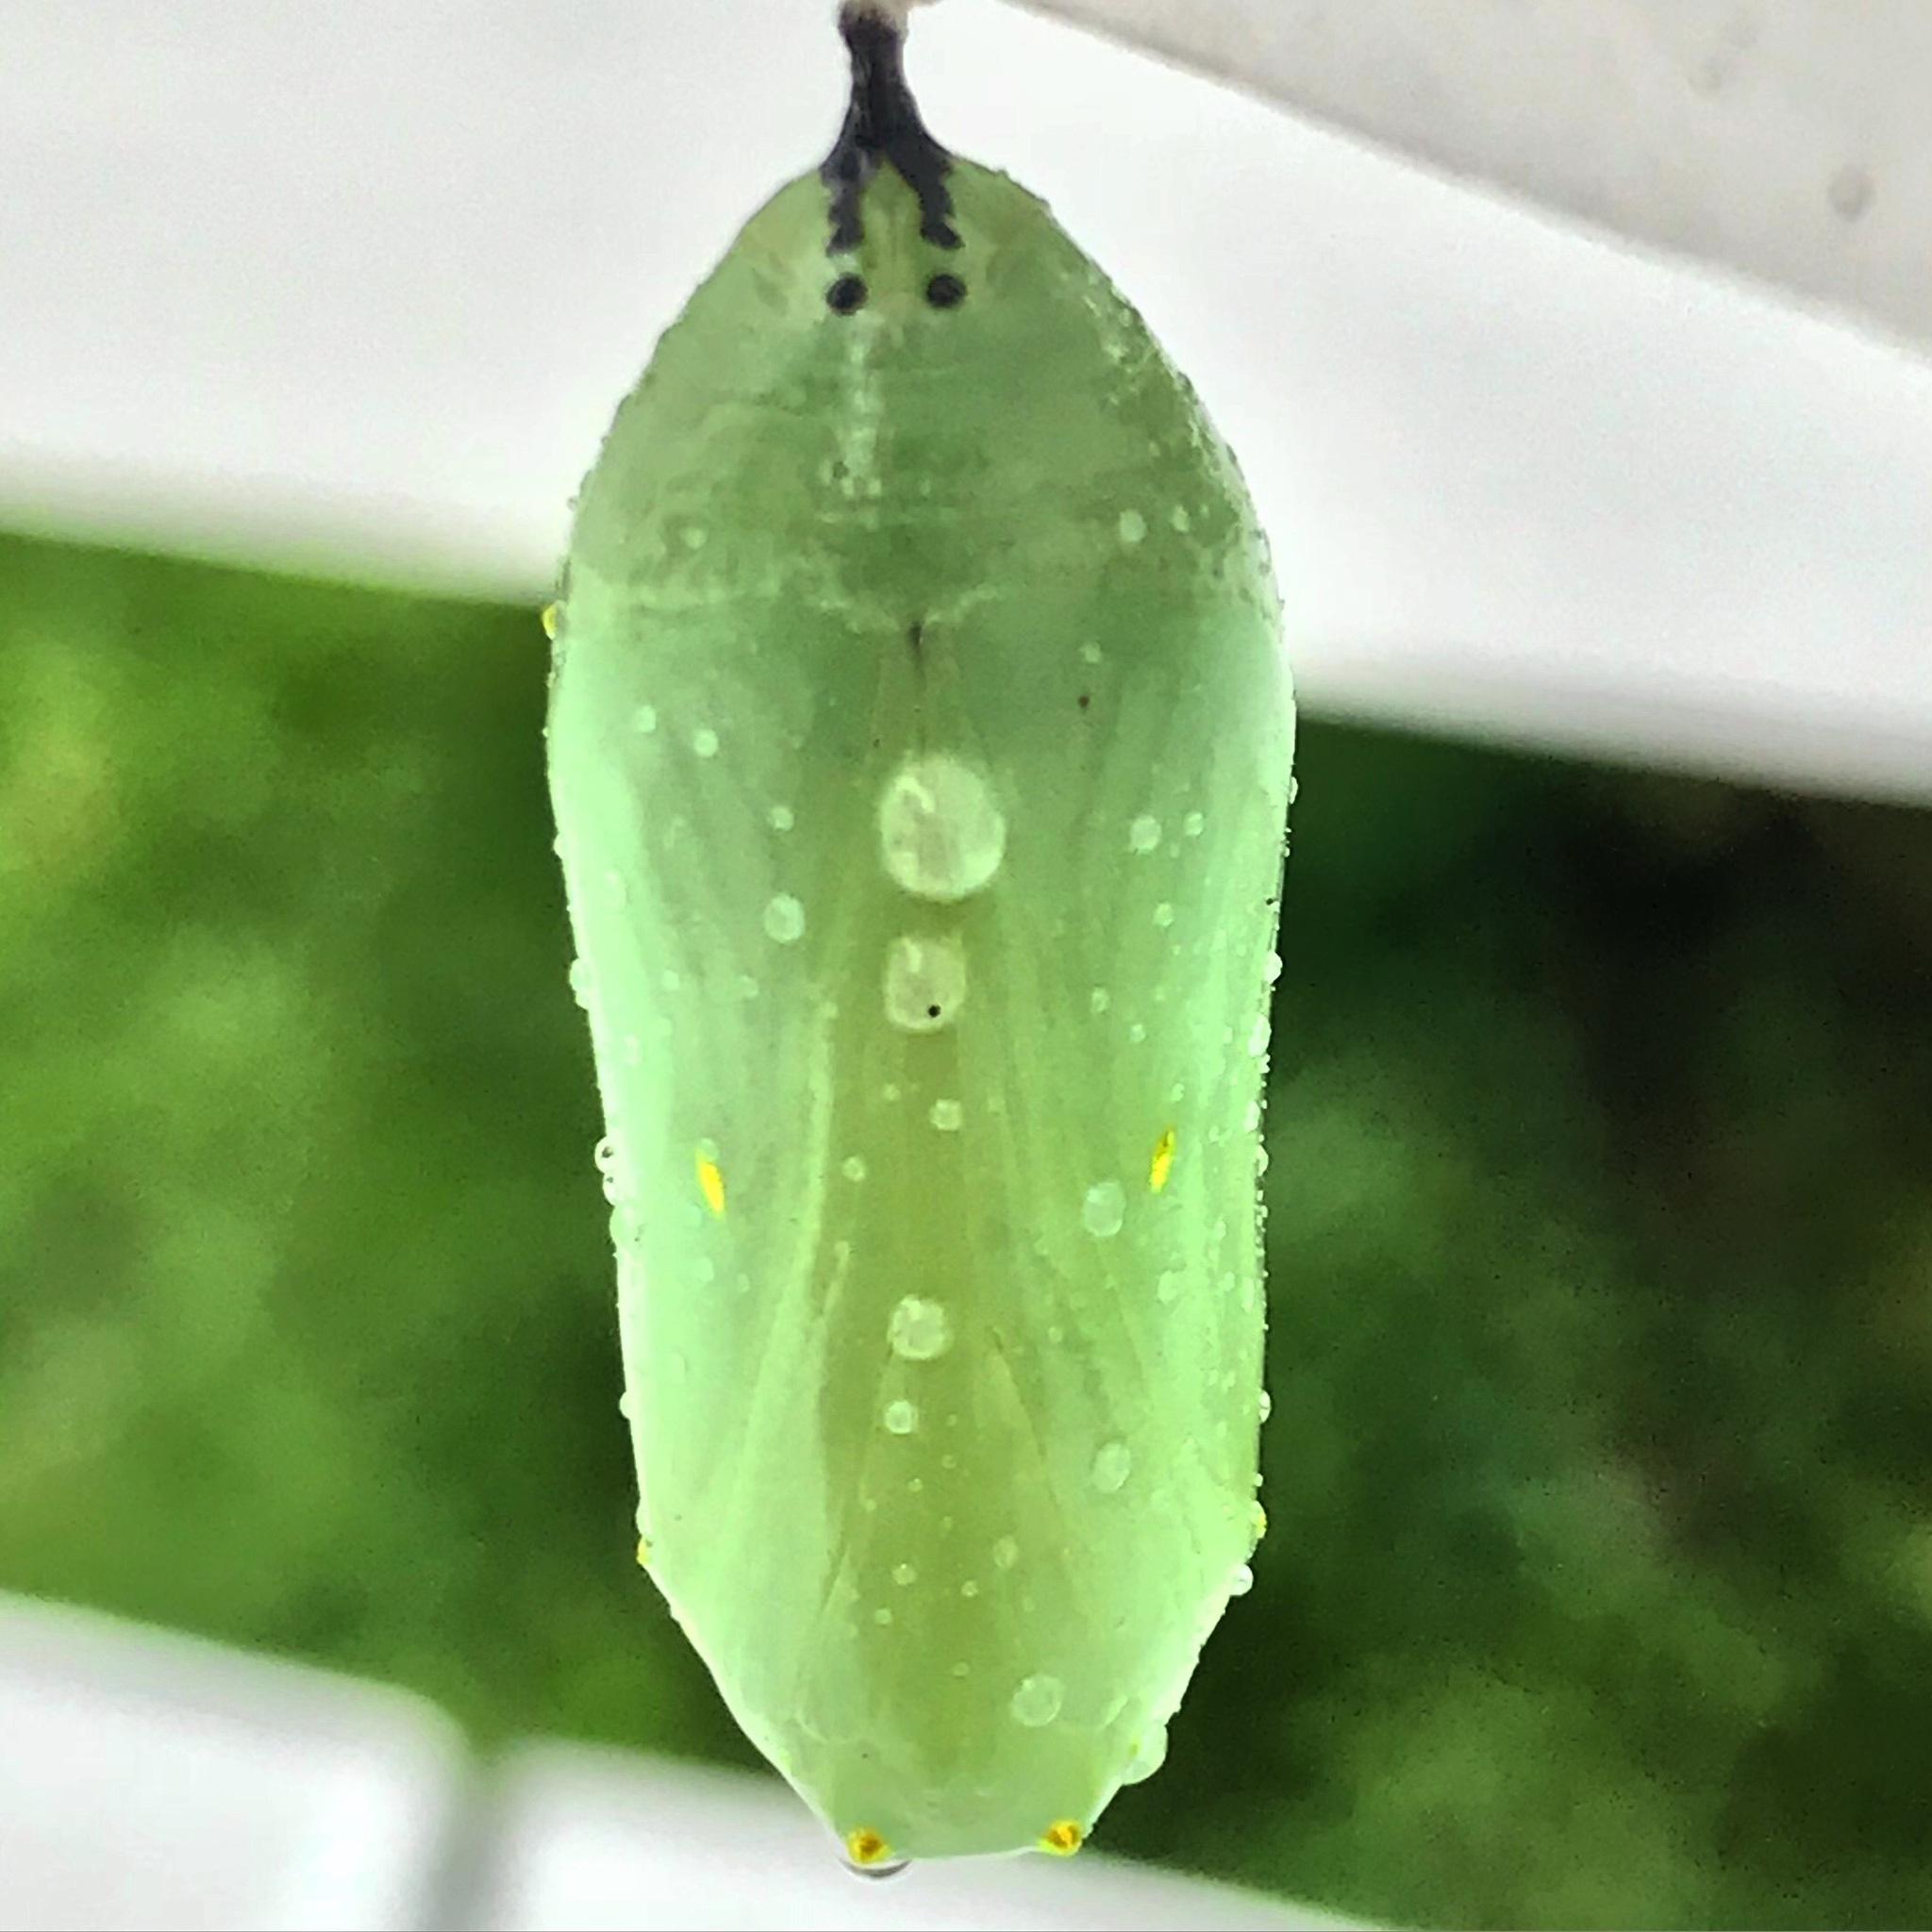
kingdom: Animalia
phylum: Arthropoda
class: Insecta
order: Lepidoptera
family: Nymphalidae
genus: Danaus
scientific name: Danaus plexippus
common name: Monarch
